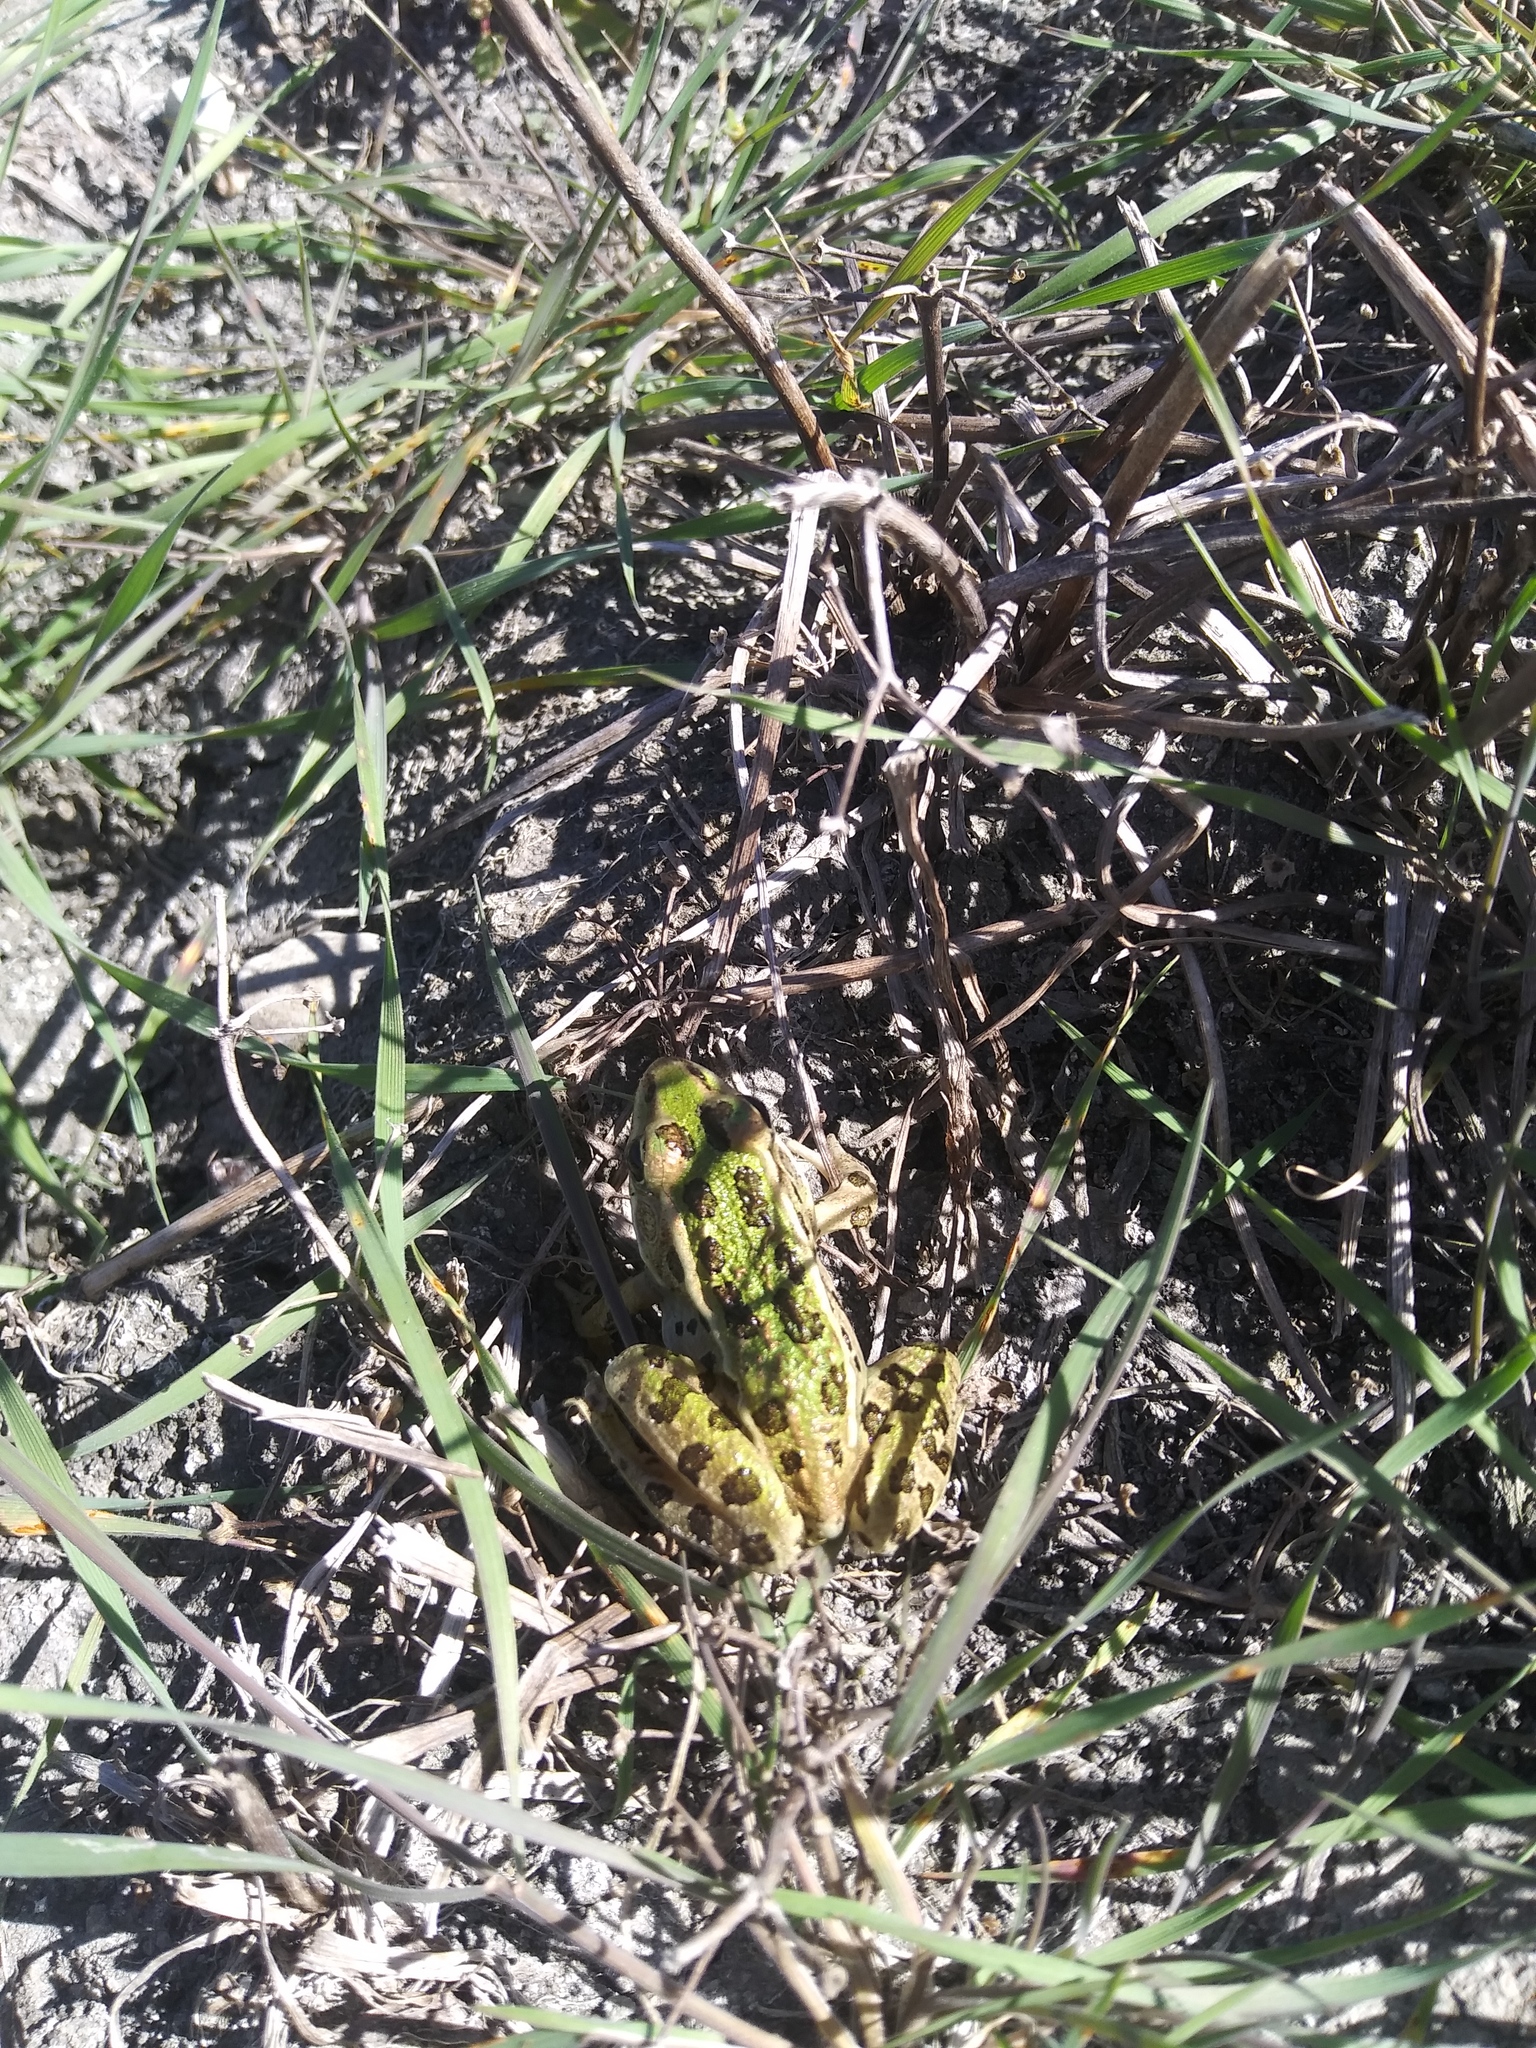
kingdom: Animalia
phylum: Chordata
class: Amphibia
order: Anura
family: Ranidae
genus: Lithobates
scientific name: Lithobates pipiens
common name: Northern leopard frog
